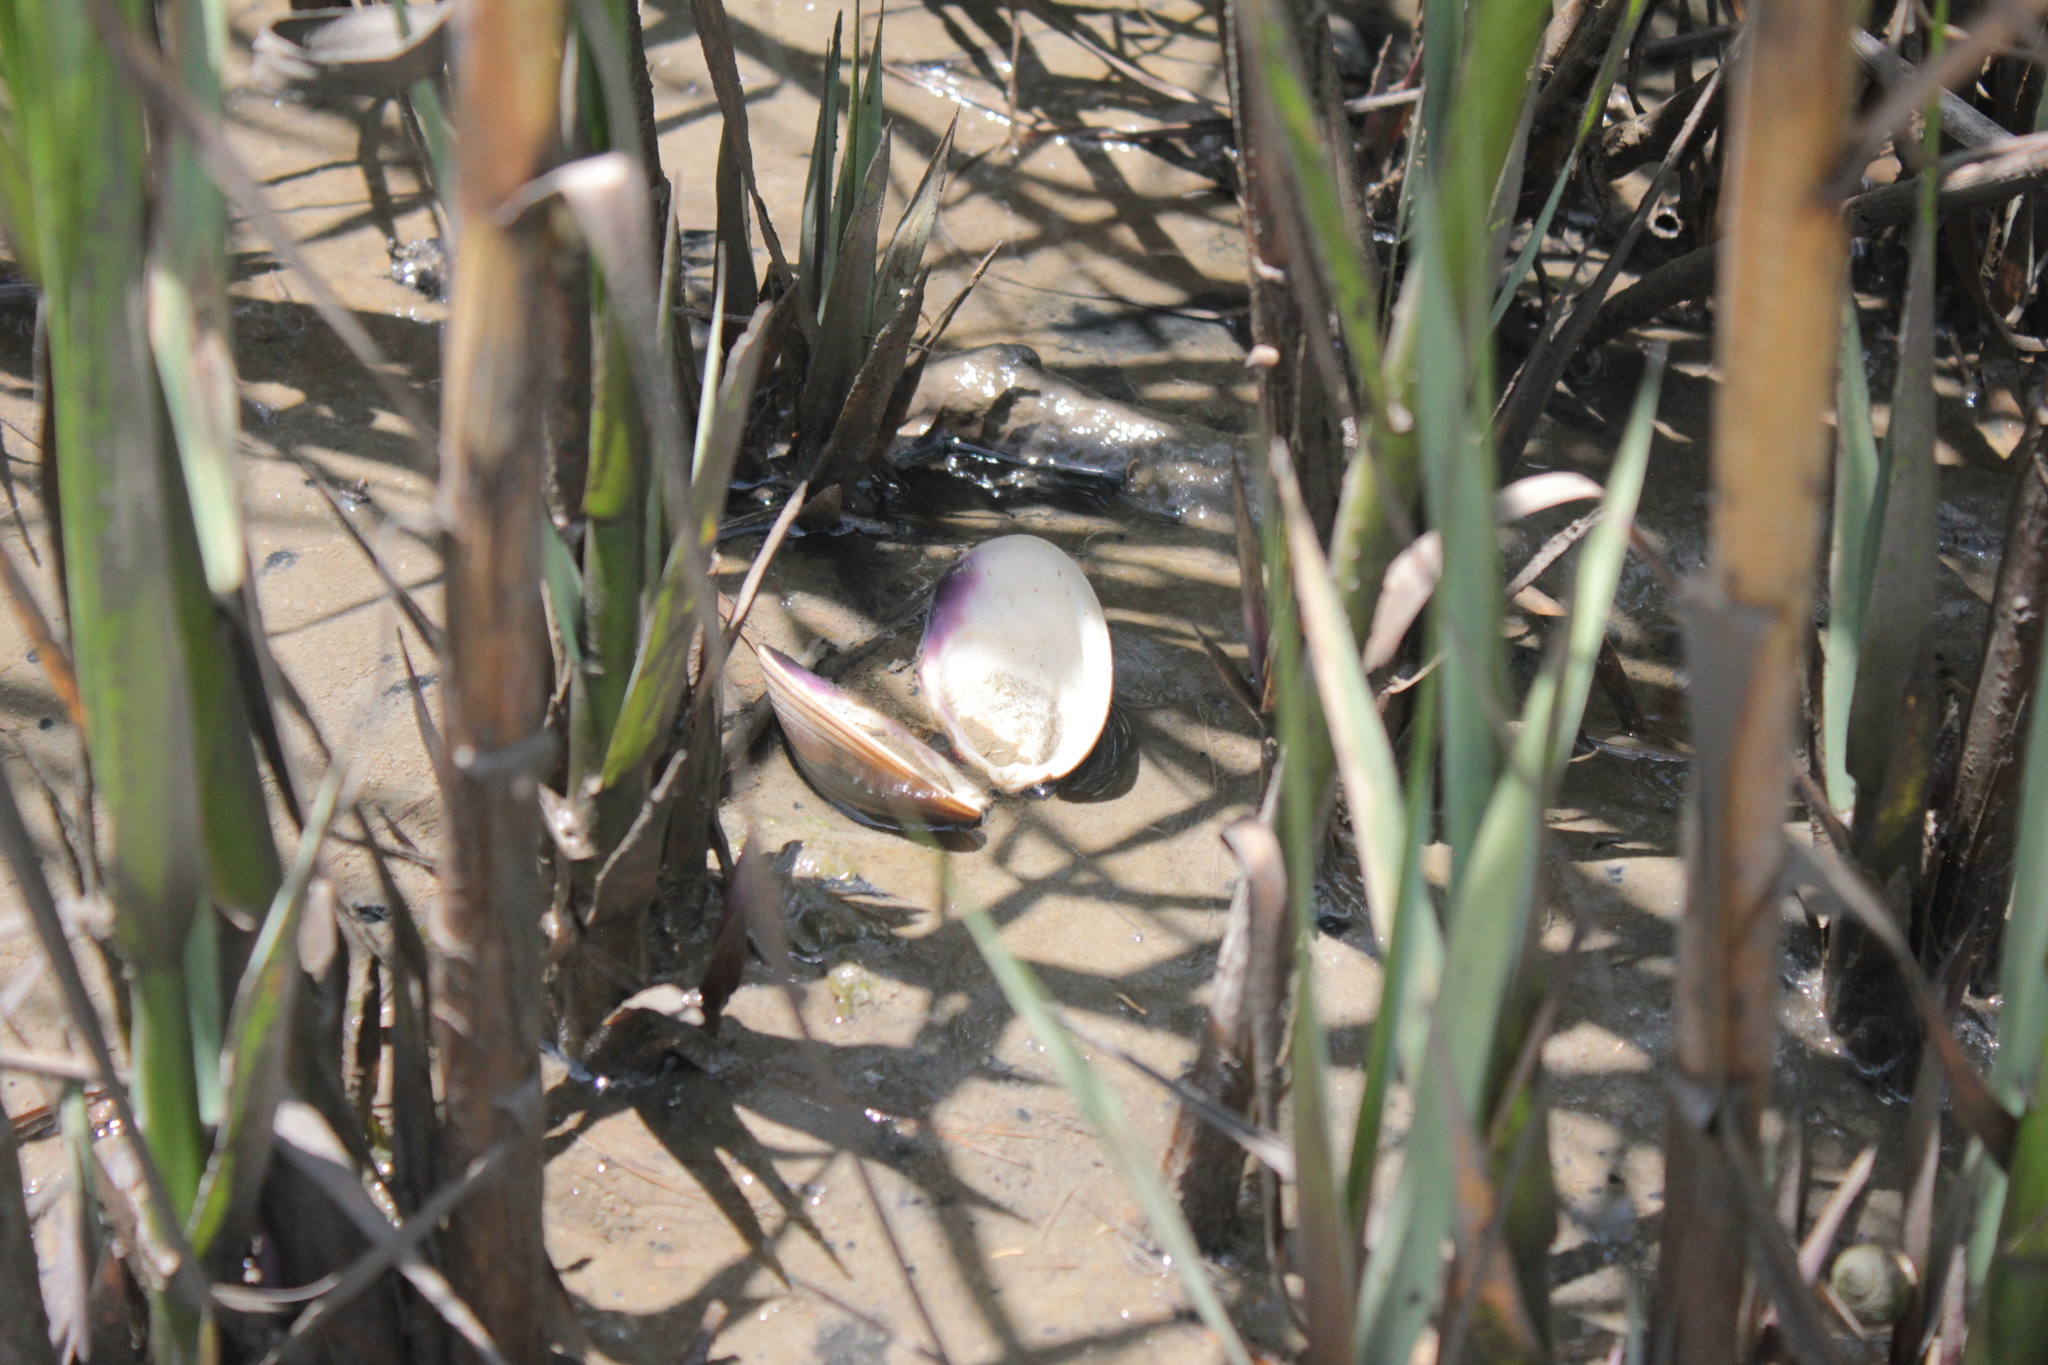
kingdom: Animalia
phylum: Mollusca
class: Bivalvia
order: Venerida
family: Veneridae
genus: Mercenaria
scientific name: Mercenaria mercenaria
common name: American hard-shelled clam
